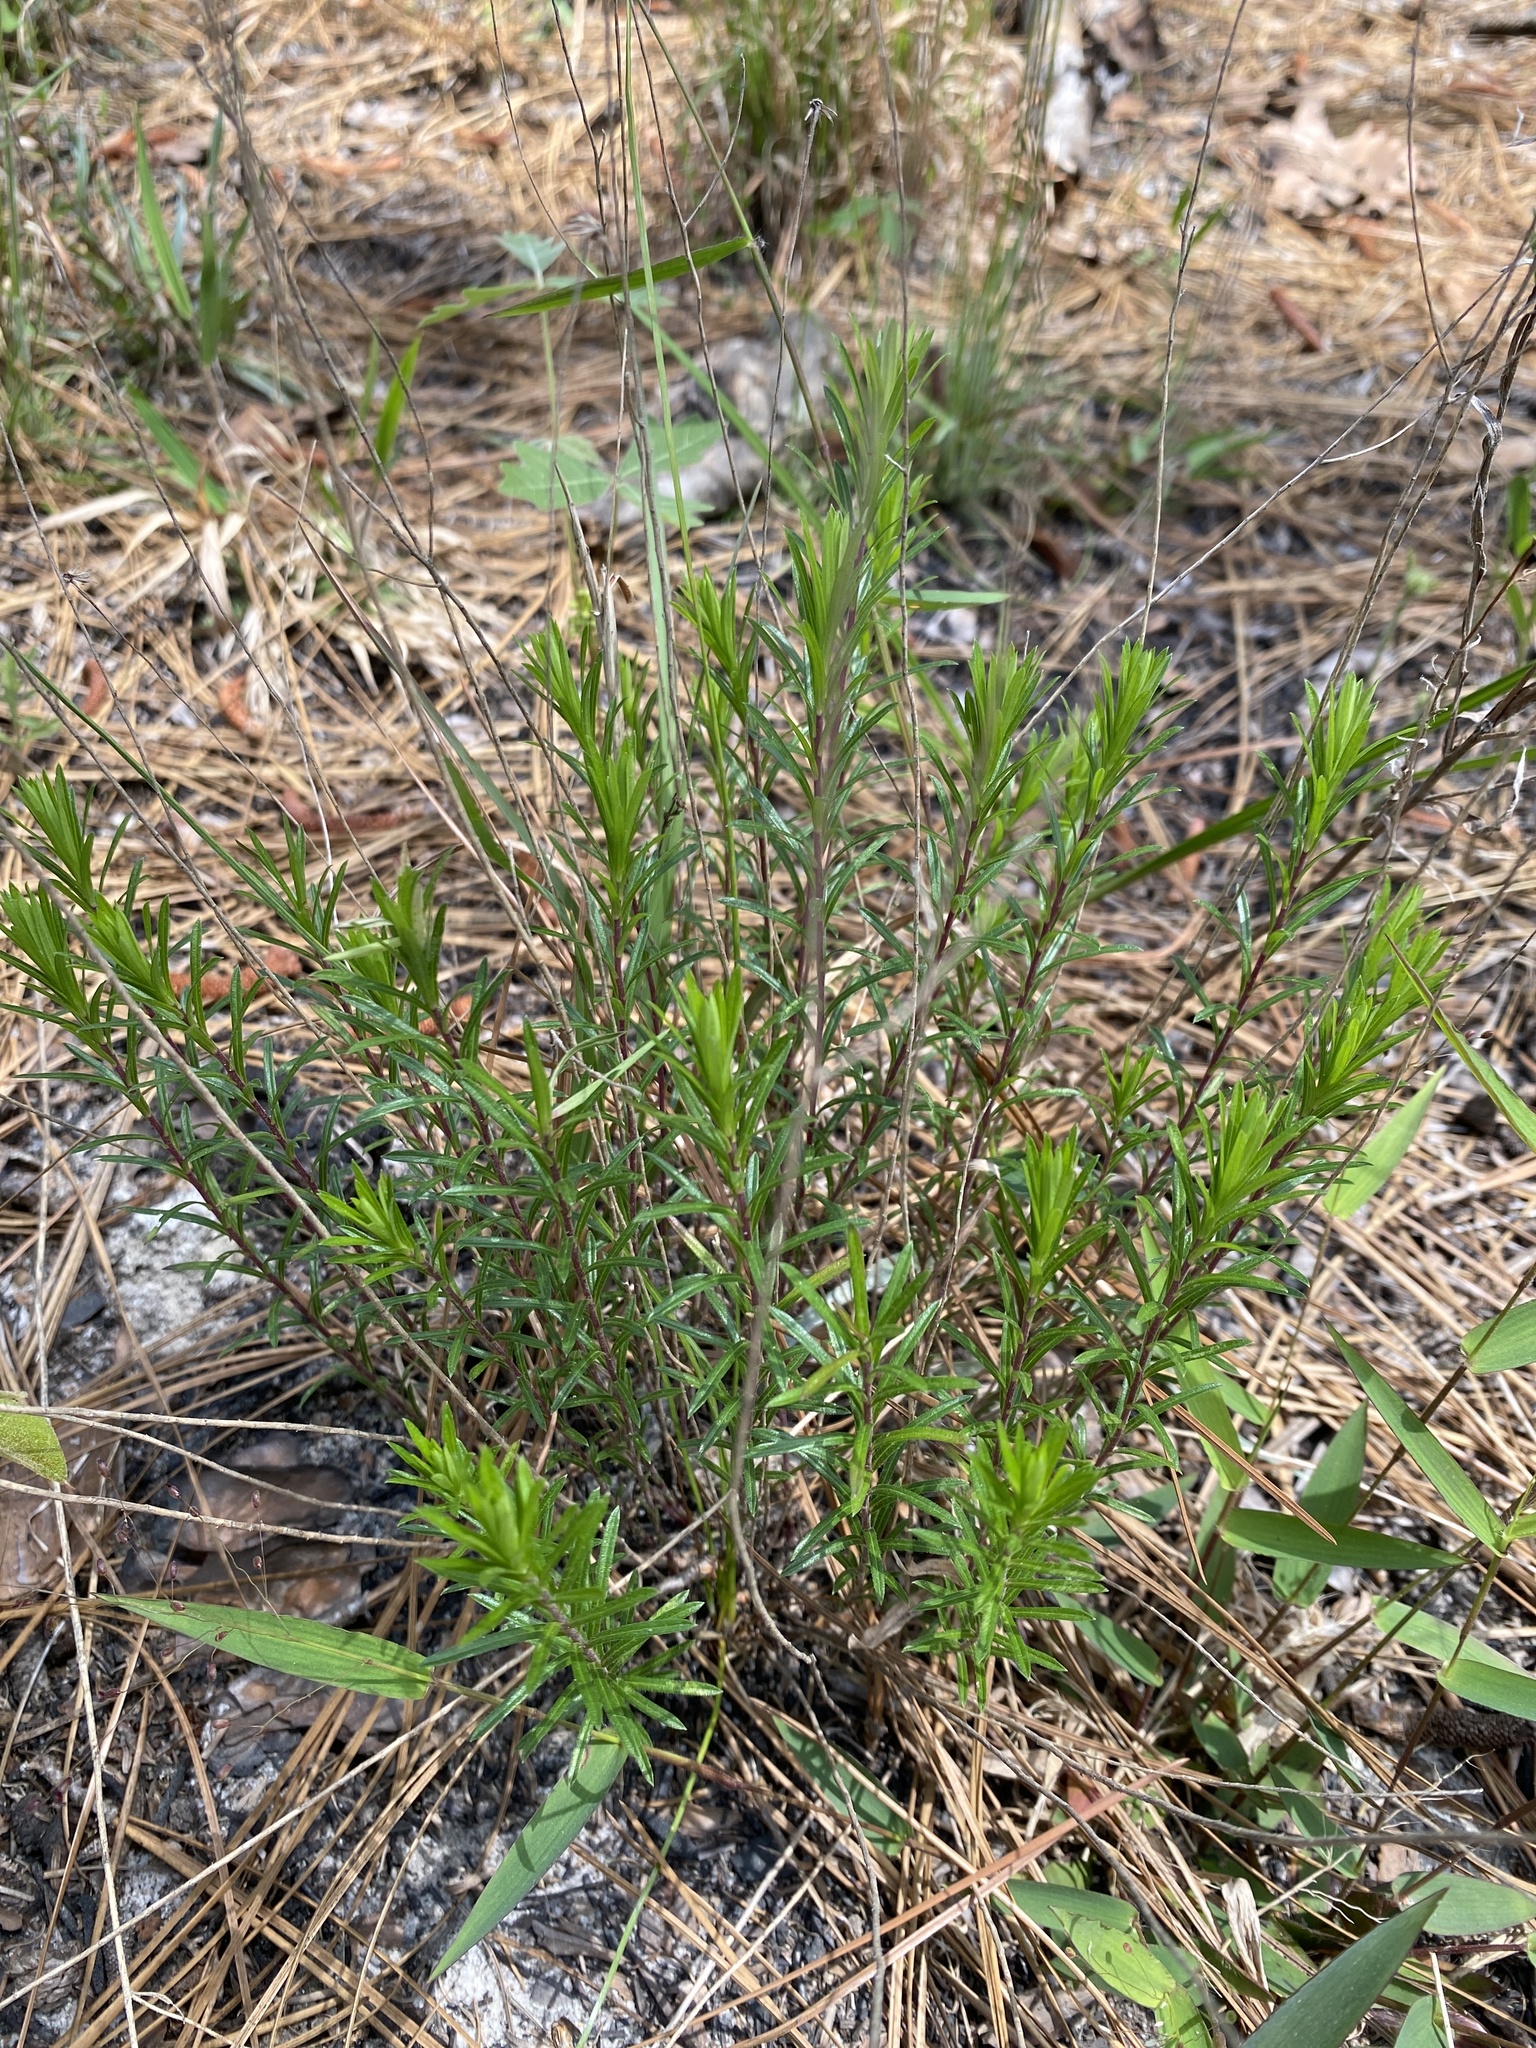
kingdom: Plantae
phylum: Tracheophyta
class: Magnoliopsida
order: Asterales
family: Asteraceae
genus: Ionactis
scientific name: Ionactis linariifolia
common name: Flax-leaf aster
